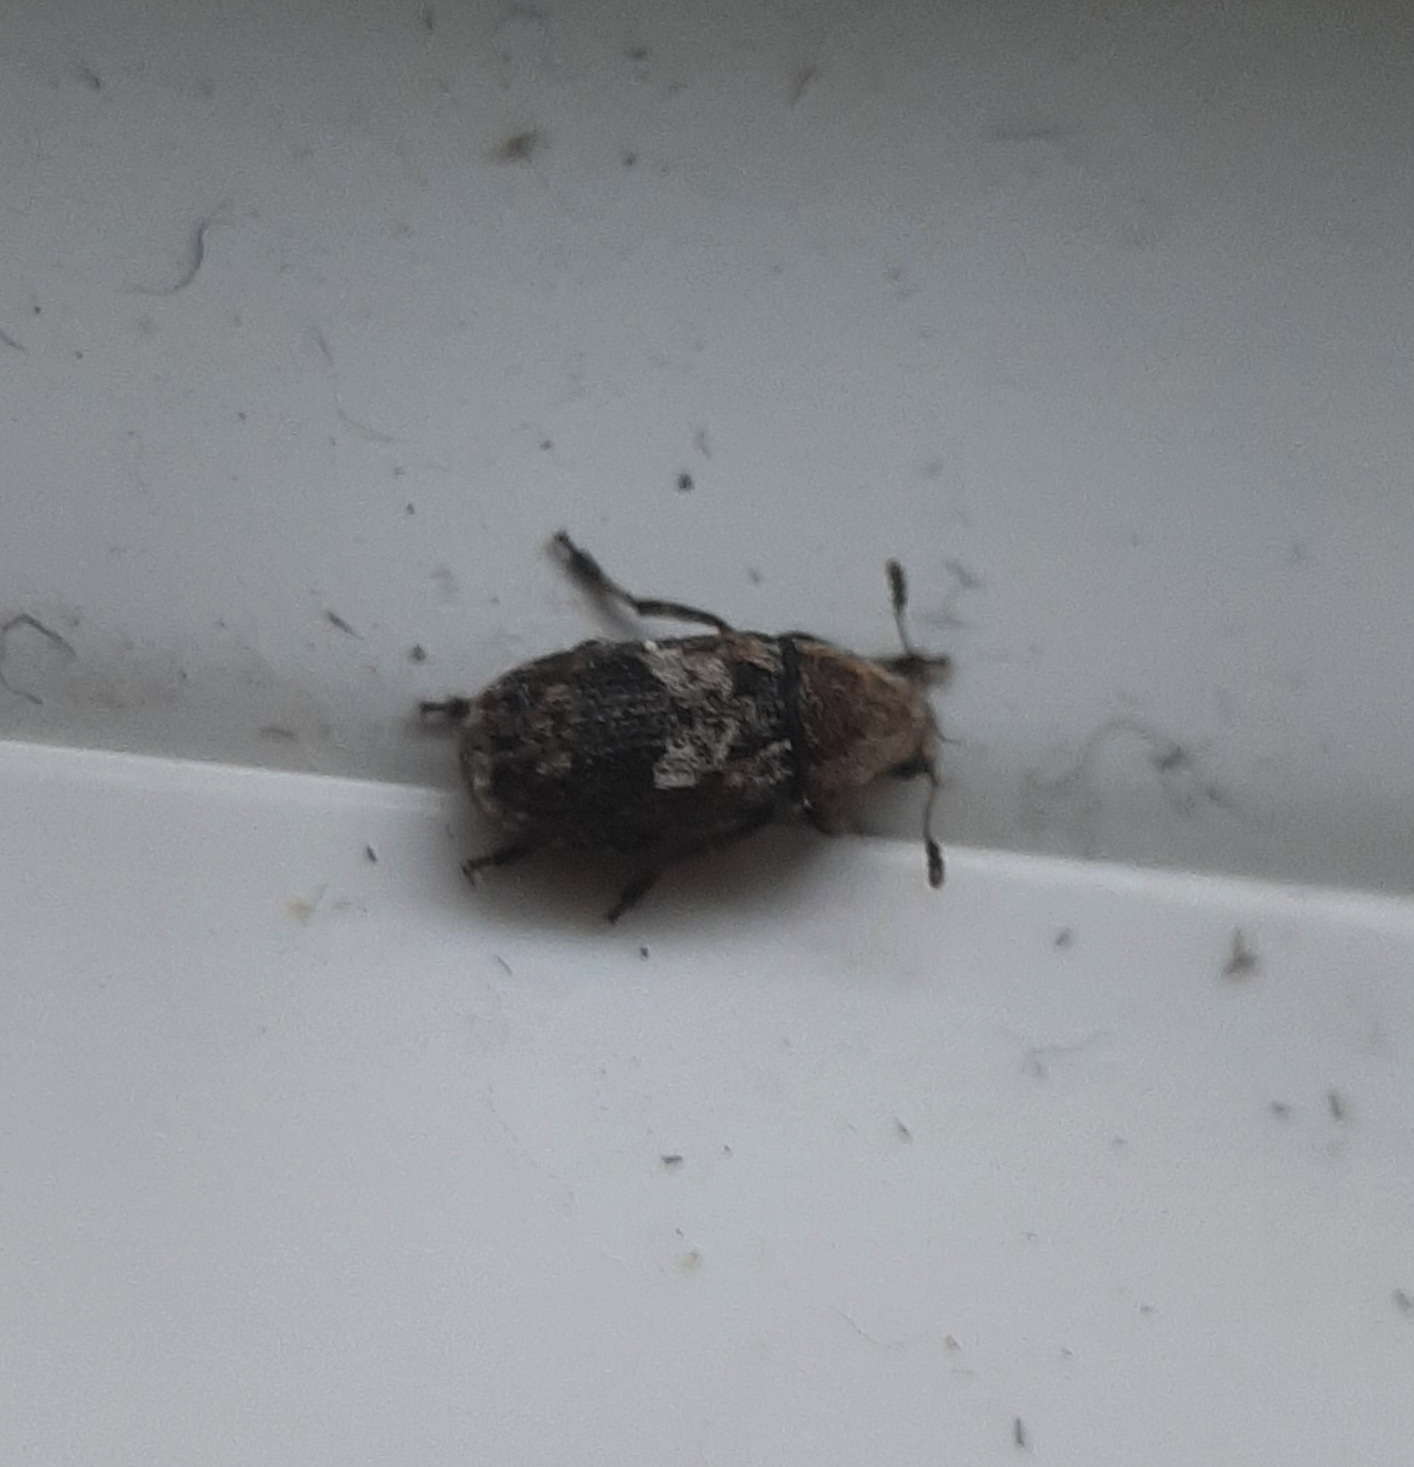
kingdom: Animalia
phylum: Arthropoda
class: Insecta
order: Coleoptera
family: Anthribidae
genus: Euparius
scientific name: Euparius paganus
